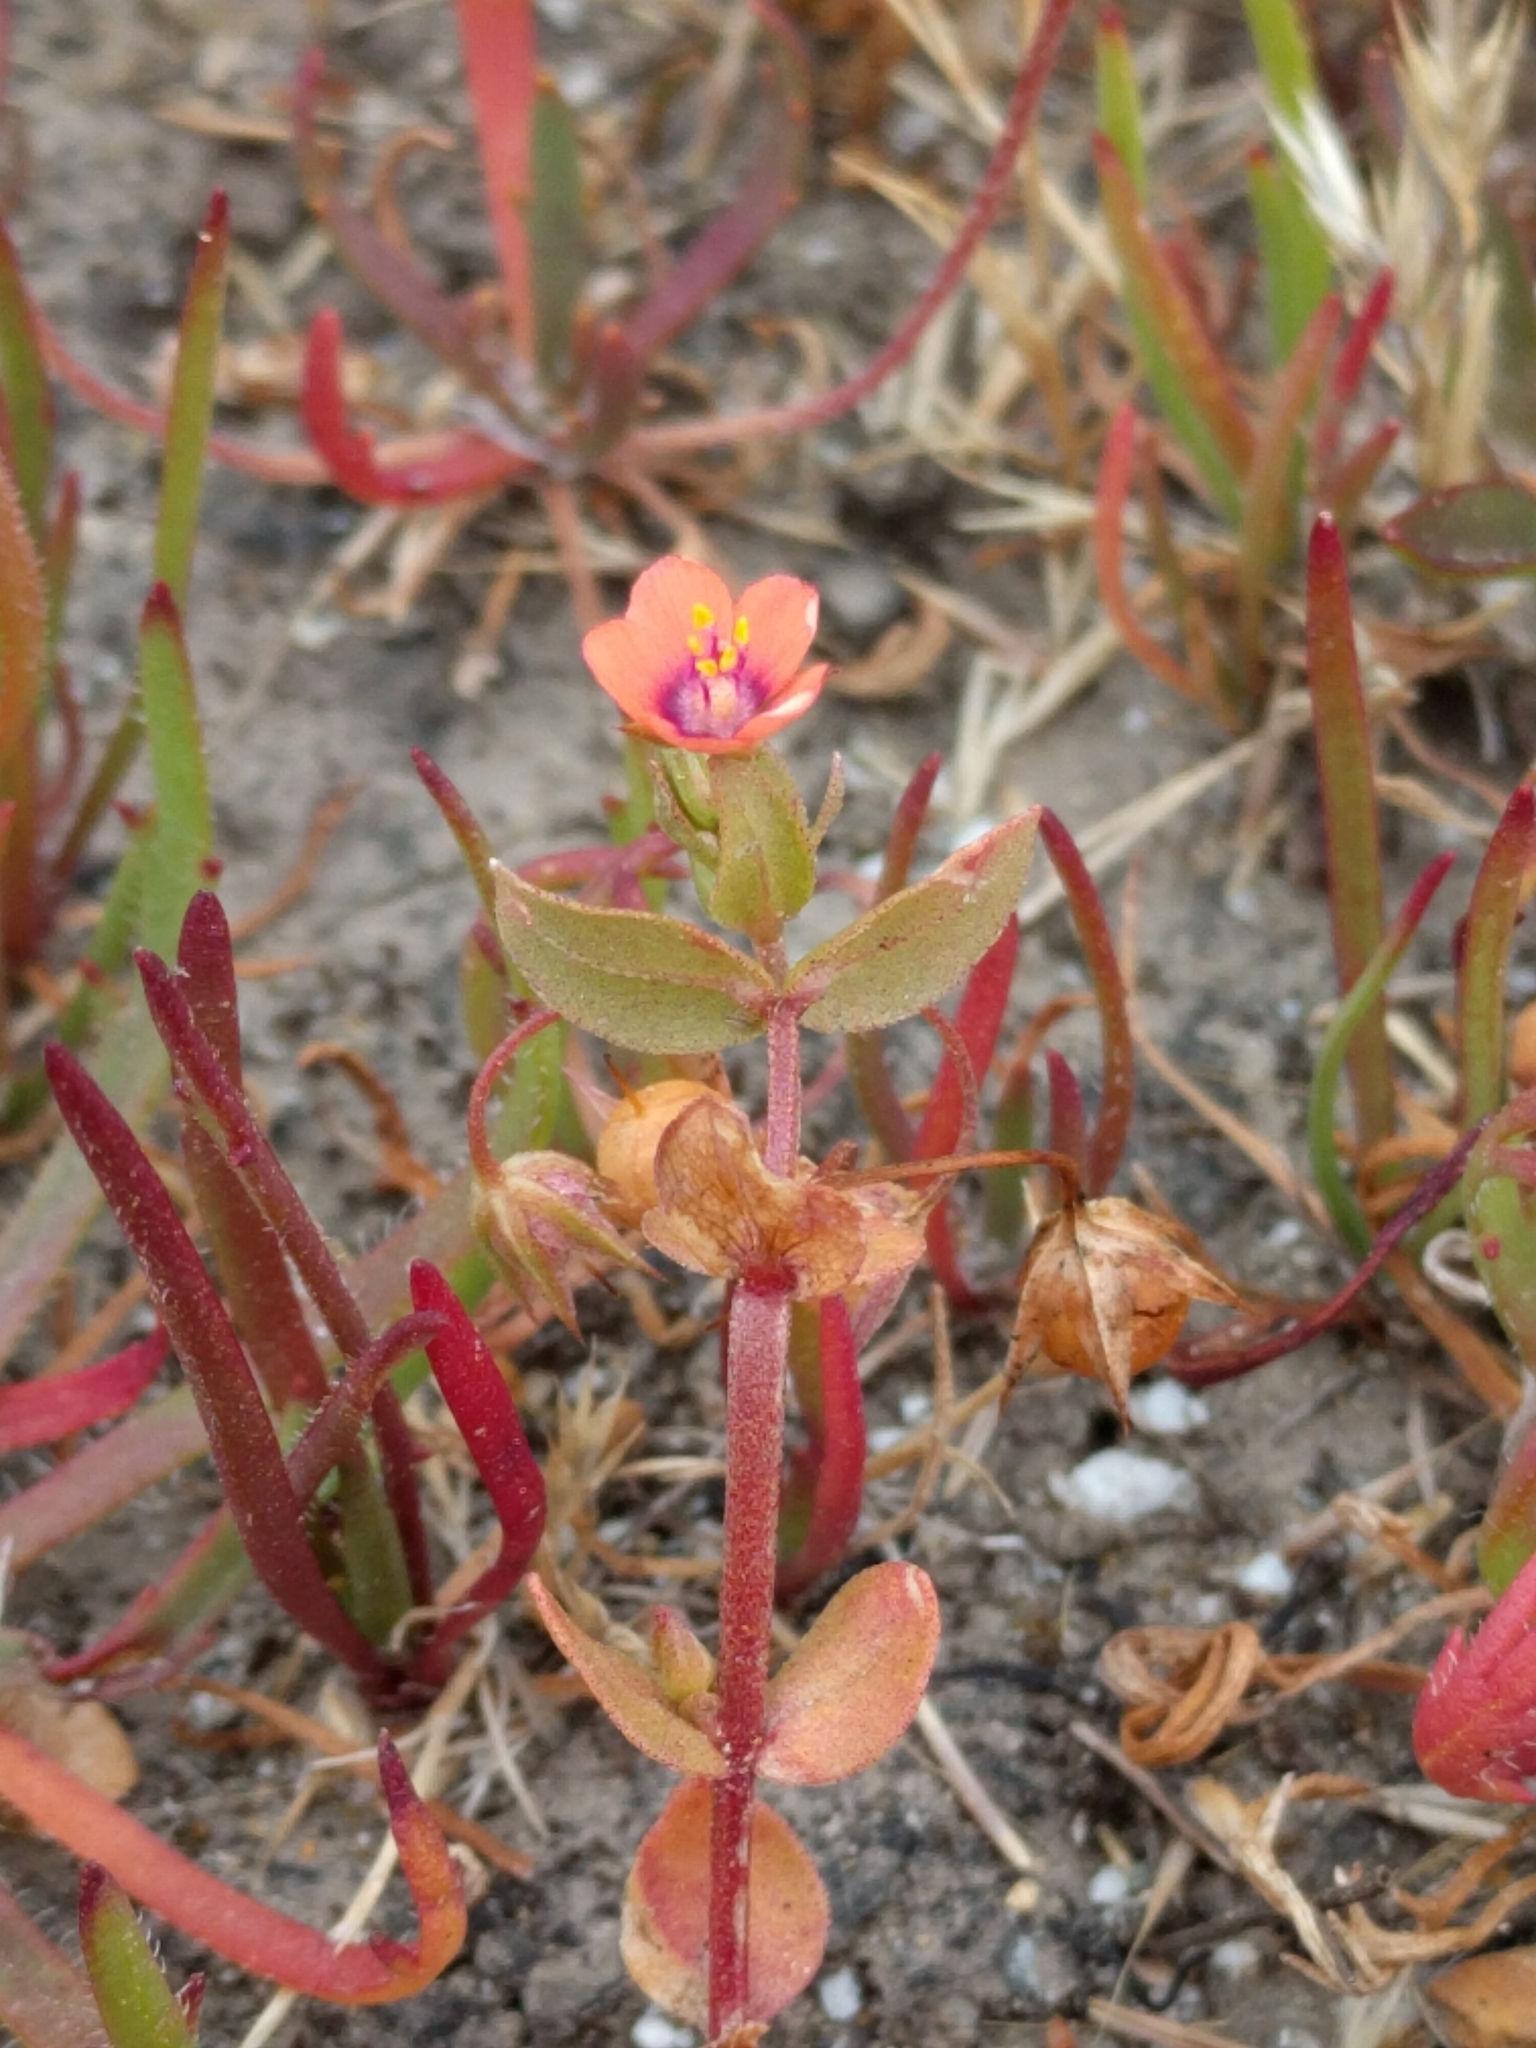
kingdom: Plantae
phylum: Tracheophyta
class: Magnoliopsida
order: Ericales
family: Primulaceae
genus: Lysimachia
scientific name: Lysimachia arvensis
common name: Scarlet pimpernel
